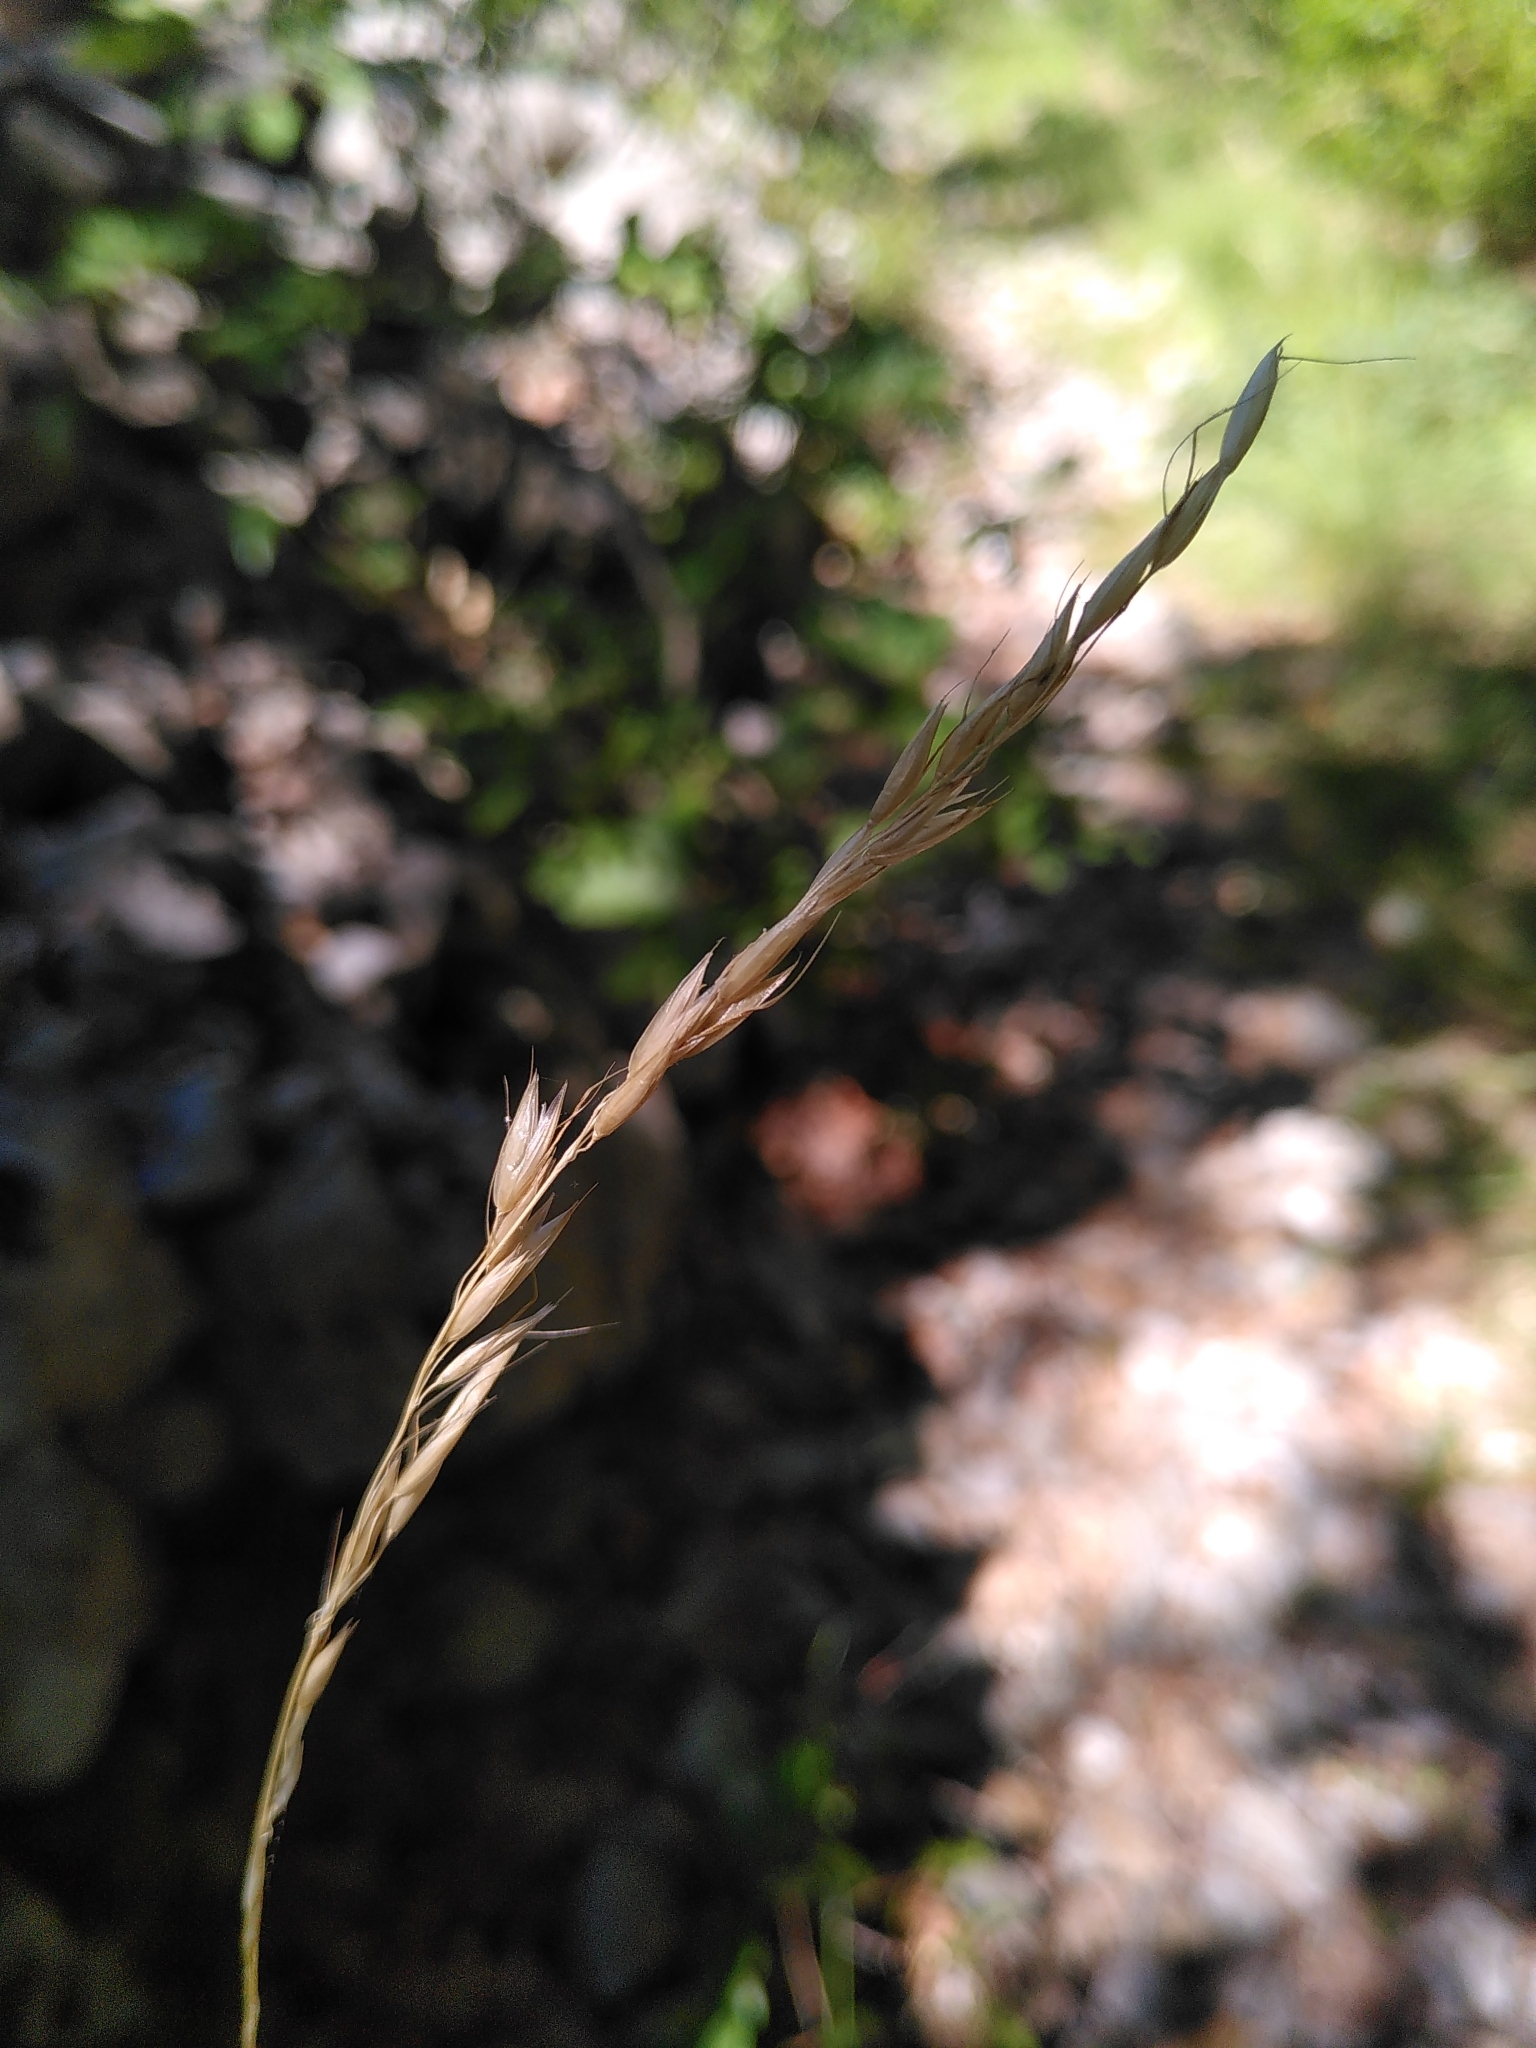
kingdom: Plantae
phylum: Tracheophyta
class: Liliopsida
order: Poales
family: Poaceae
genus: Oryzopsis
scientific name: Oryzopsis paradoxa
